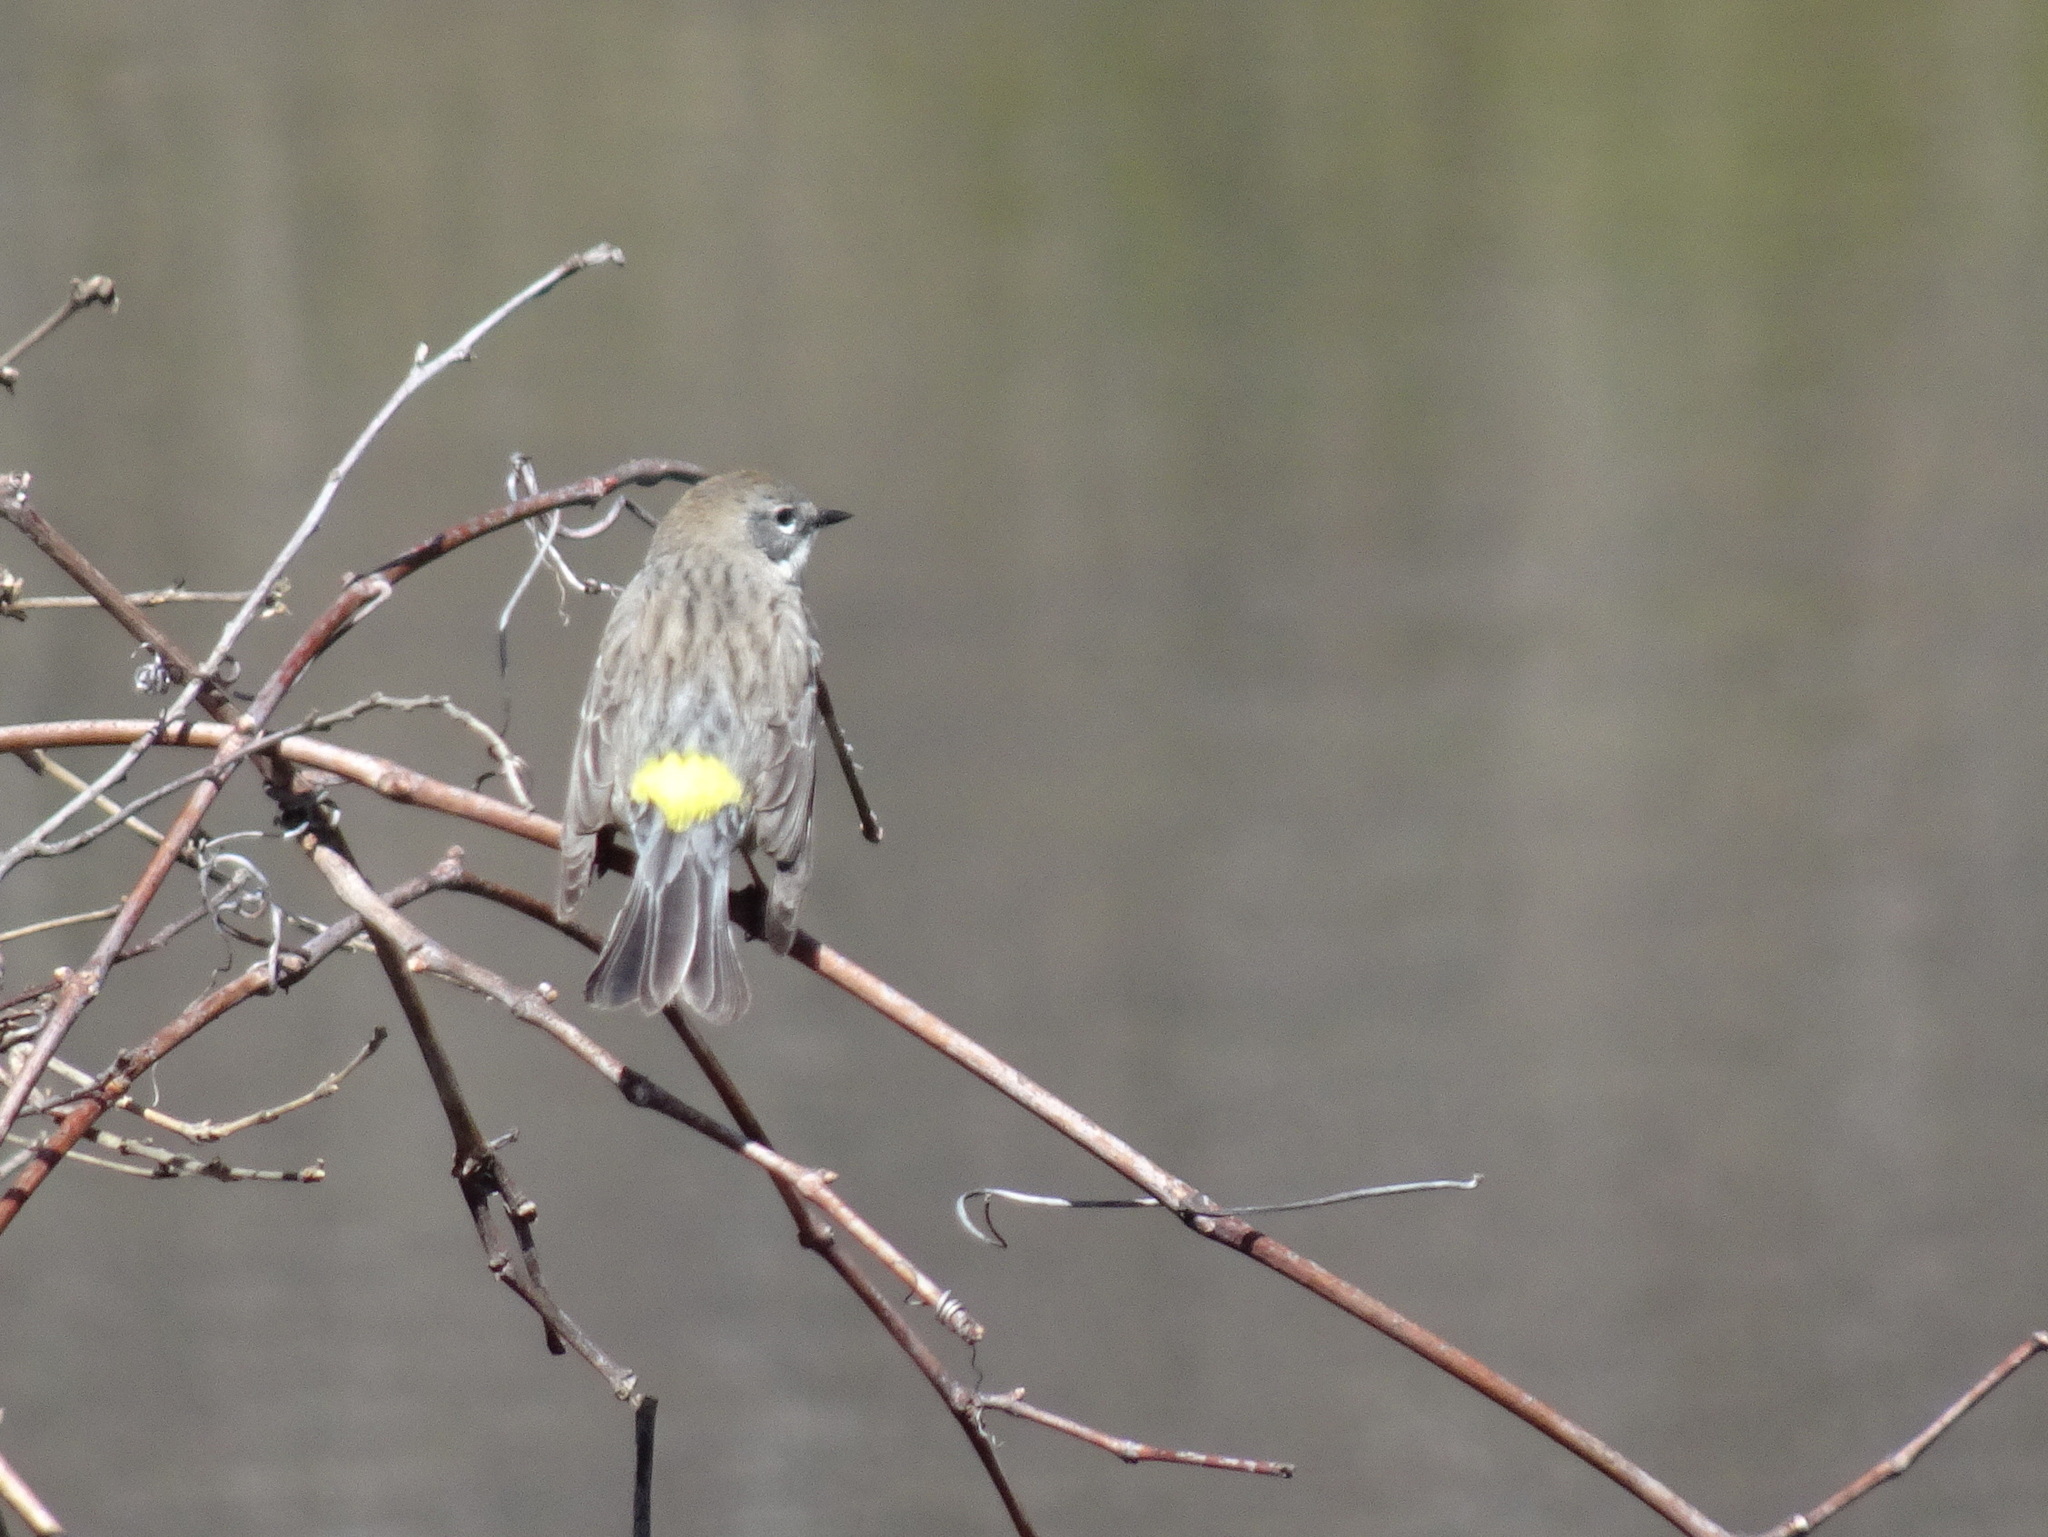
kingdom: Animalia
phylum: Chordata
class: Aves
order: Passeriformes
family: Parulidae
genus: Setophaga
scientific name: Setophaga coronata
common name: Myrtle warbler
